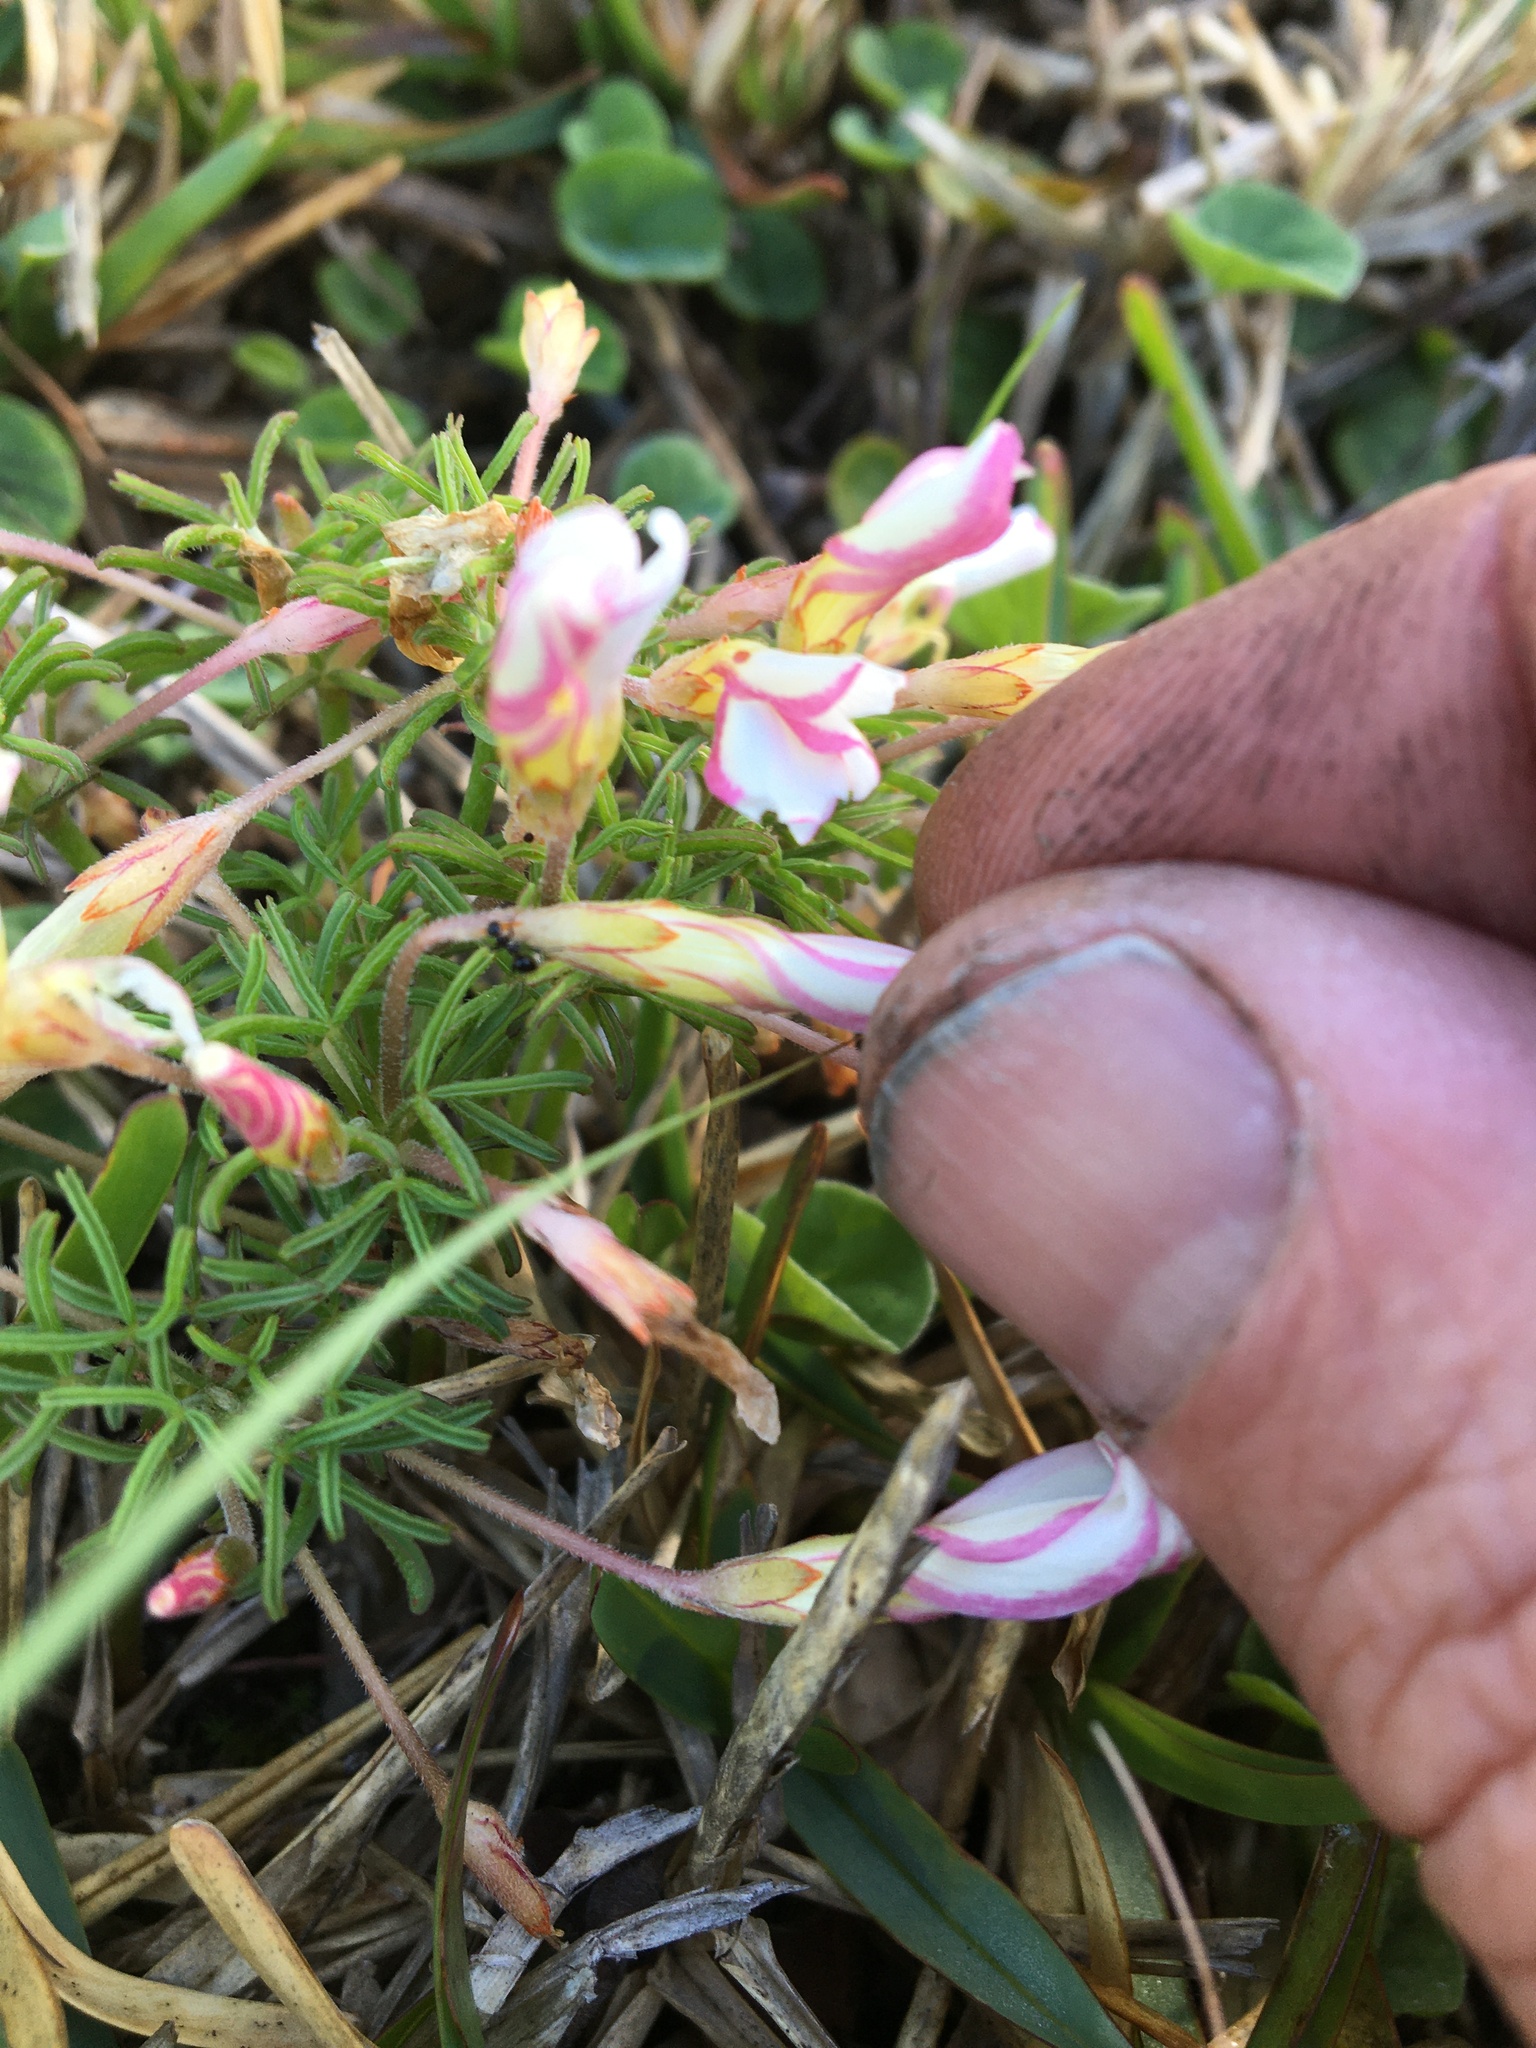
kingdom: Plantae
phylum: Tracheophyta
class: Magnoliopsida
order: Oxalidales
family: Oxalidaceae
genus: Oxalis
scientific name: Oxalis versicolor
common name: Peppermint rock oxalis
